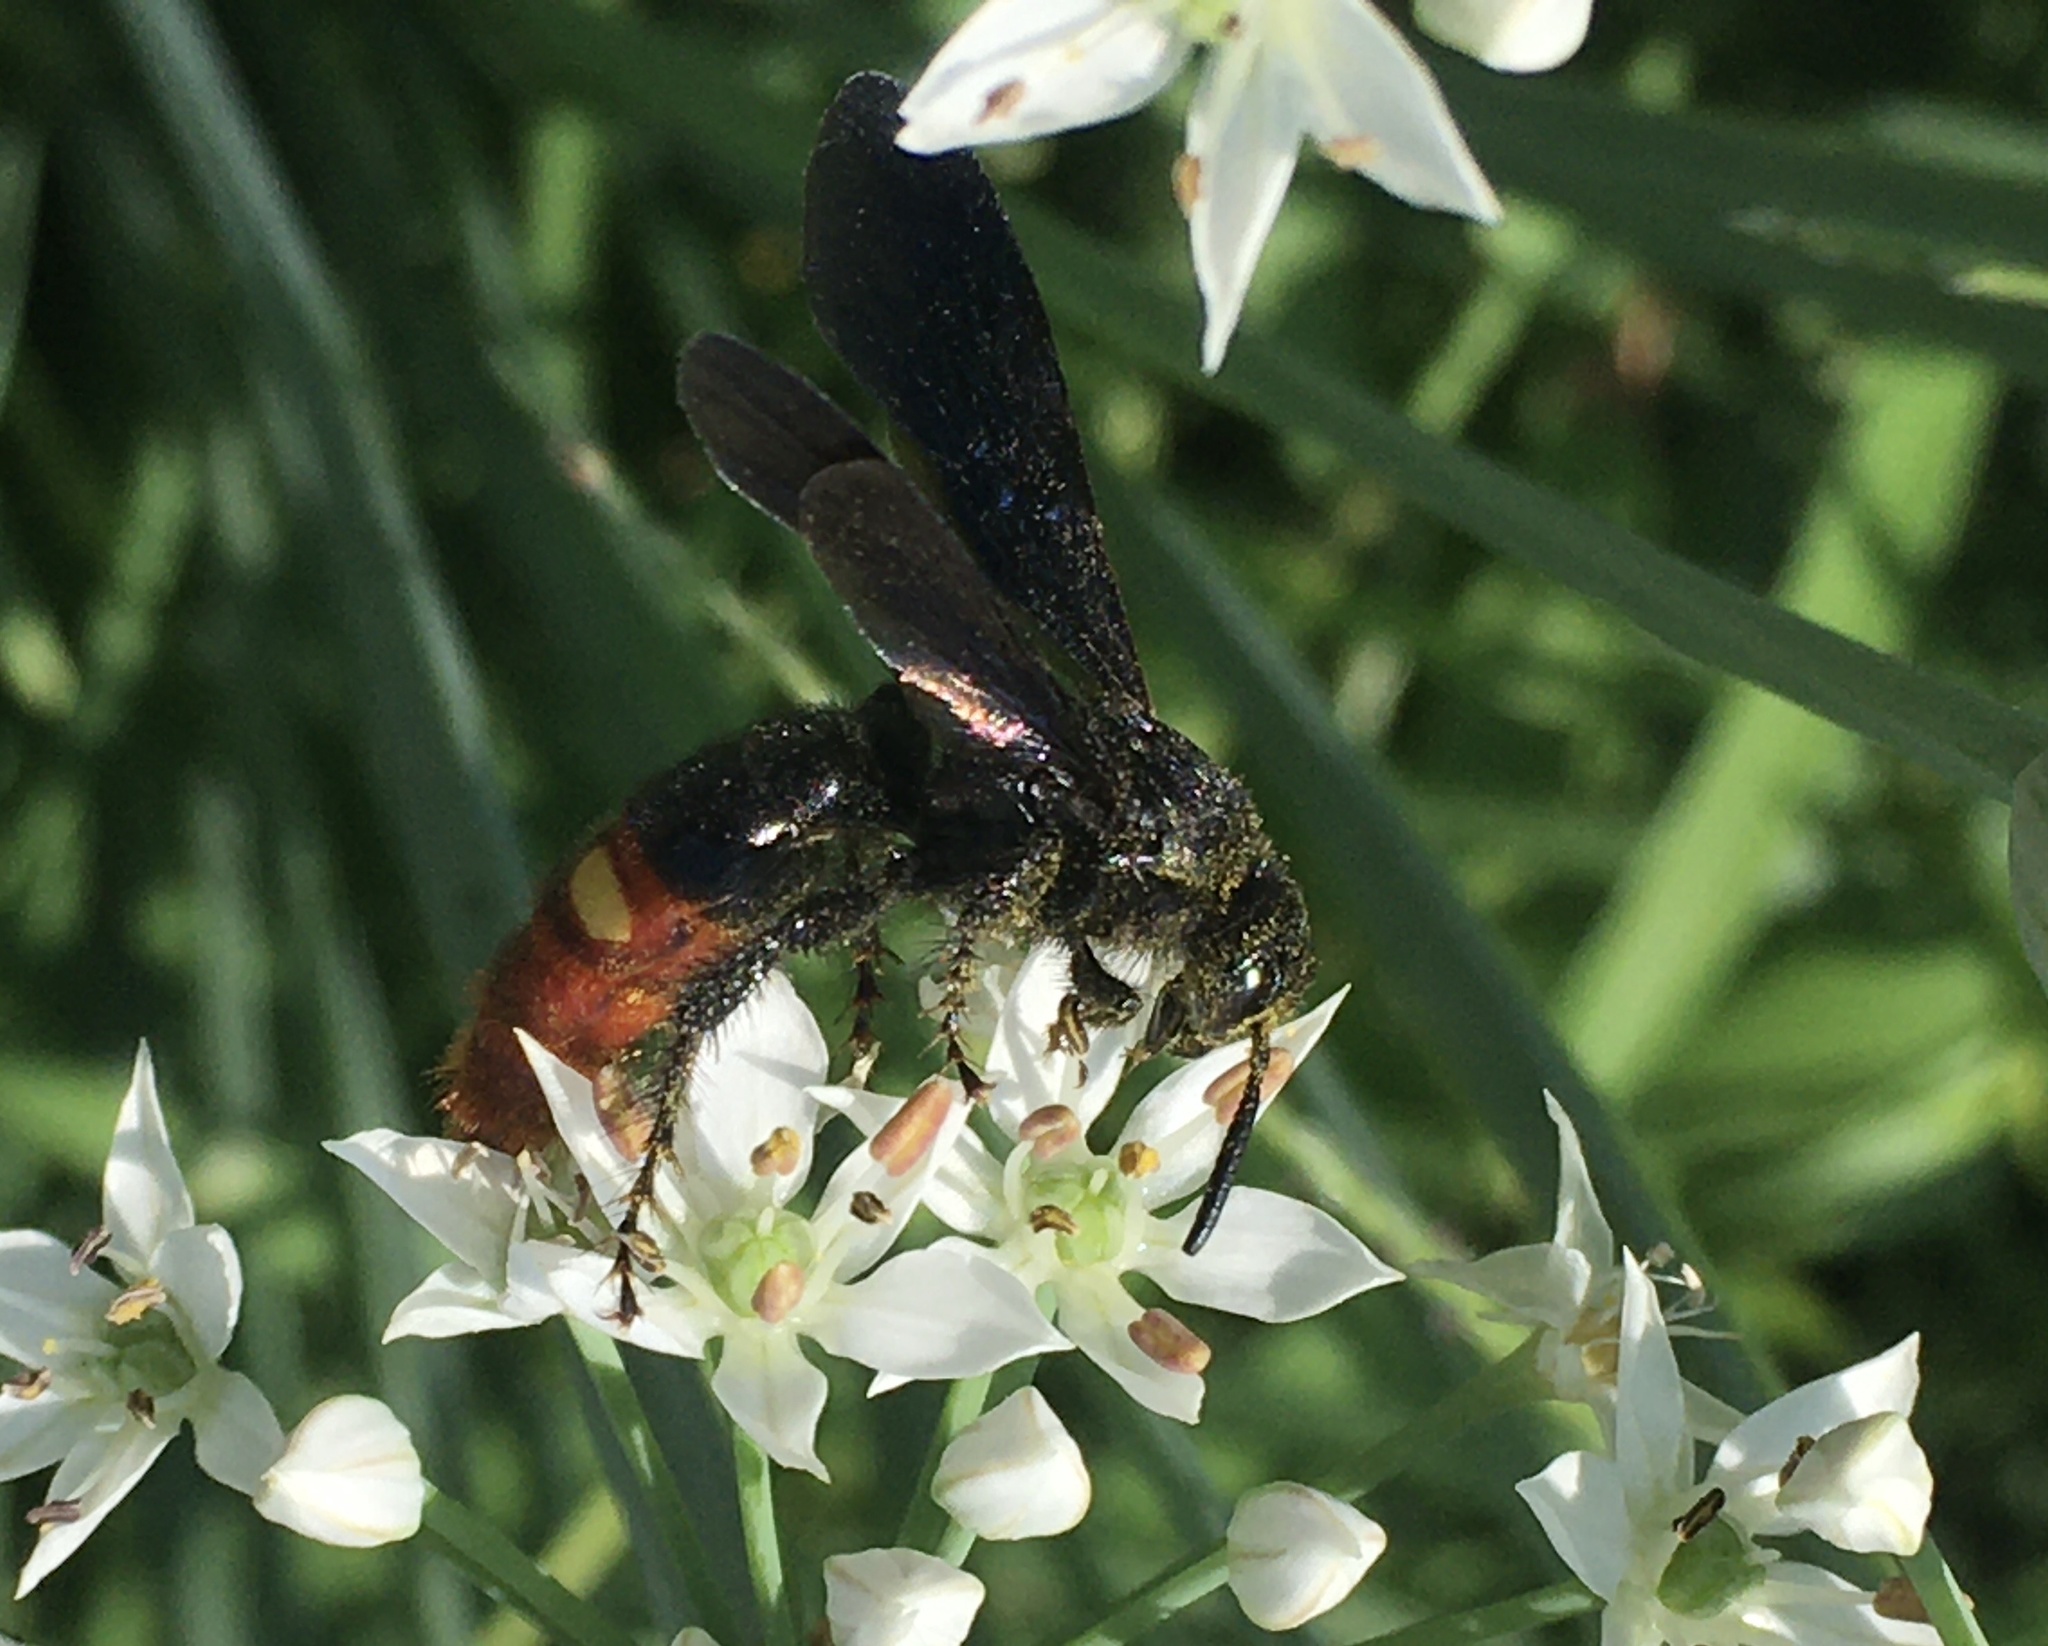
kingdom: Animalia
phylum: Arthropoda
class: Insecta
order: Hymenoptera
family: Scoliidae
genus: Scolia
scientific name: Scolia dubia
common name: Blue-winged scoliid wasp
